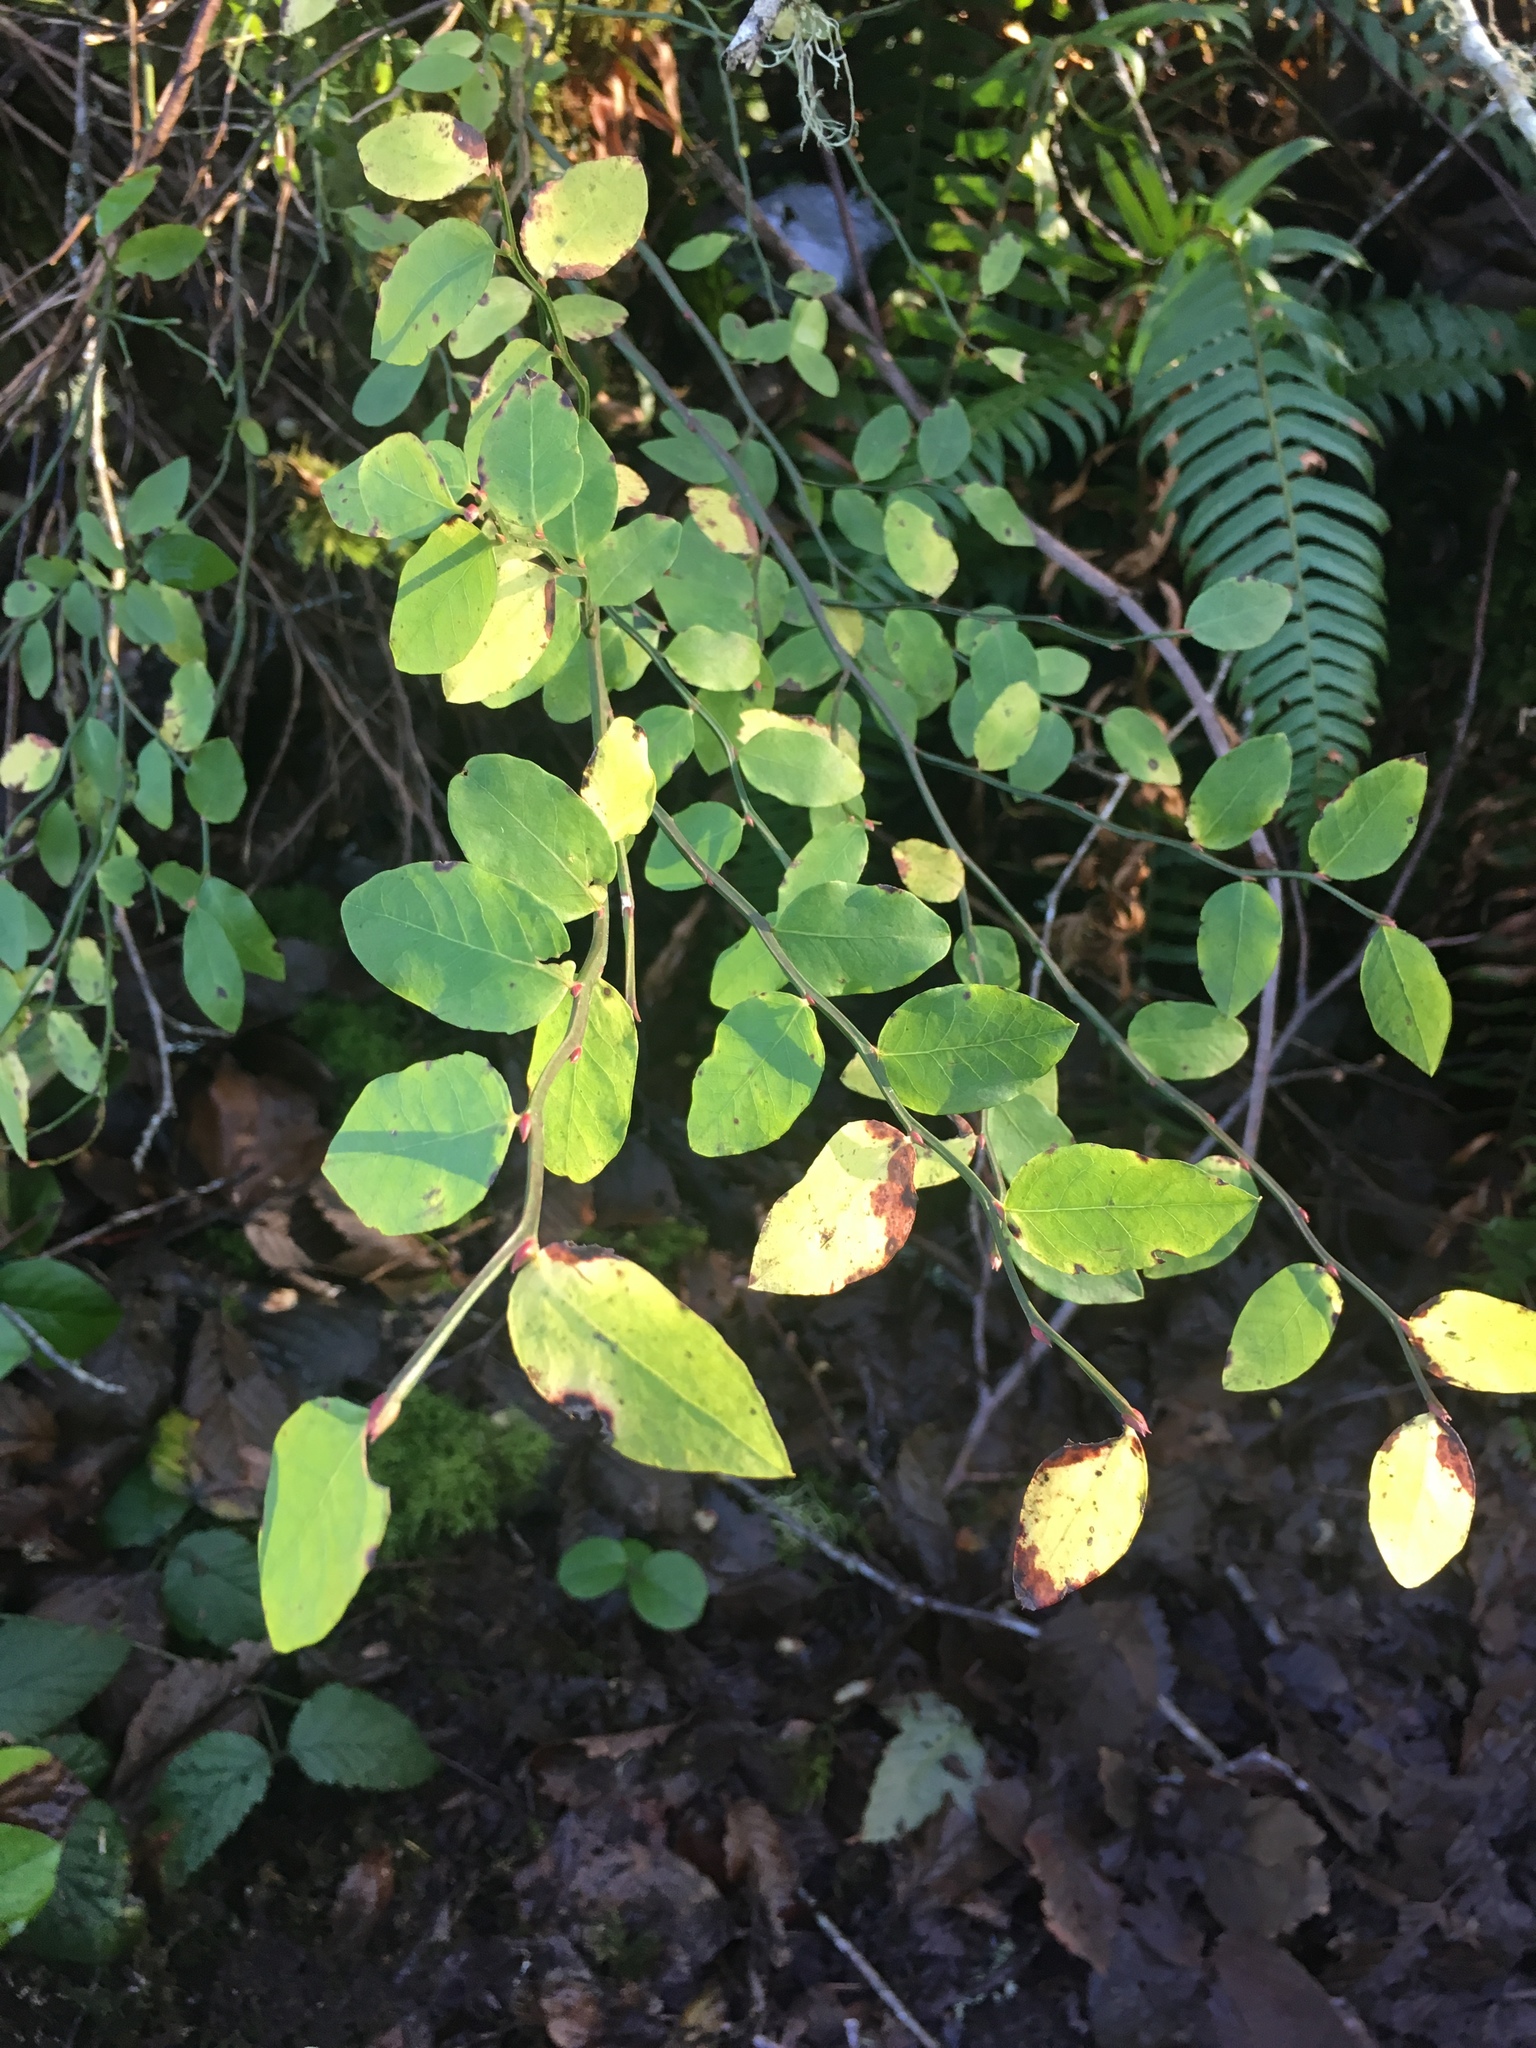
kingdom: Plantae
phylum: Tracheophyta
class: Magnoliopsida
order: Ericales
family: Ericaceae
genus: Vaccinium
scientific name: Vaccinium parvifolium
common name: Red-huckleberry
